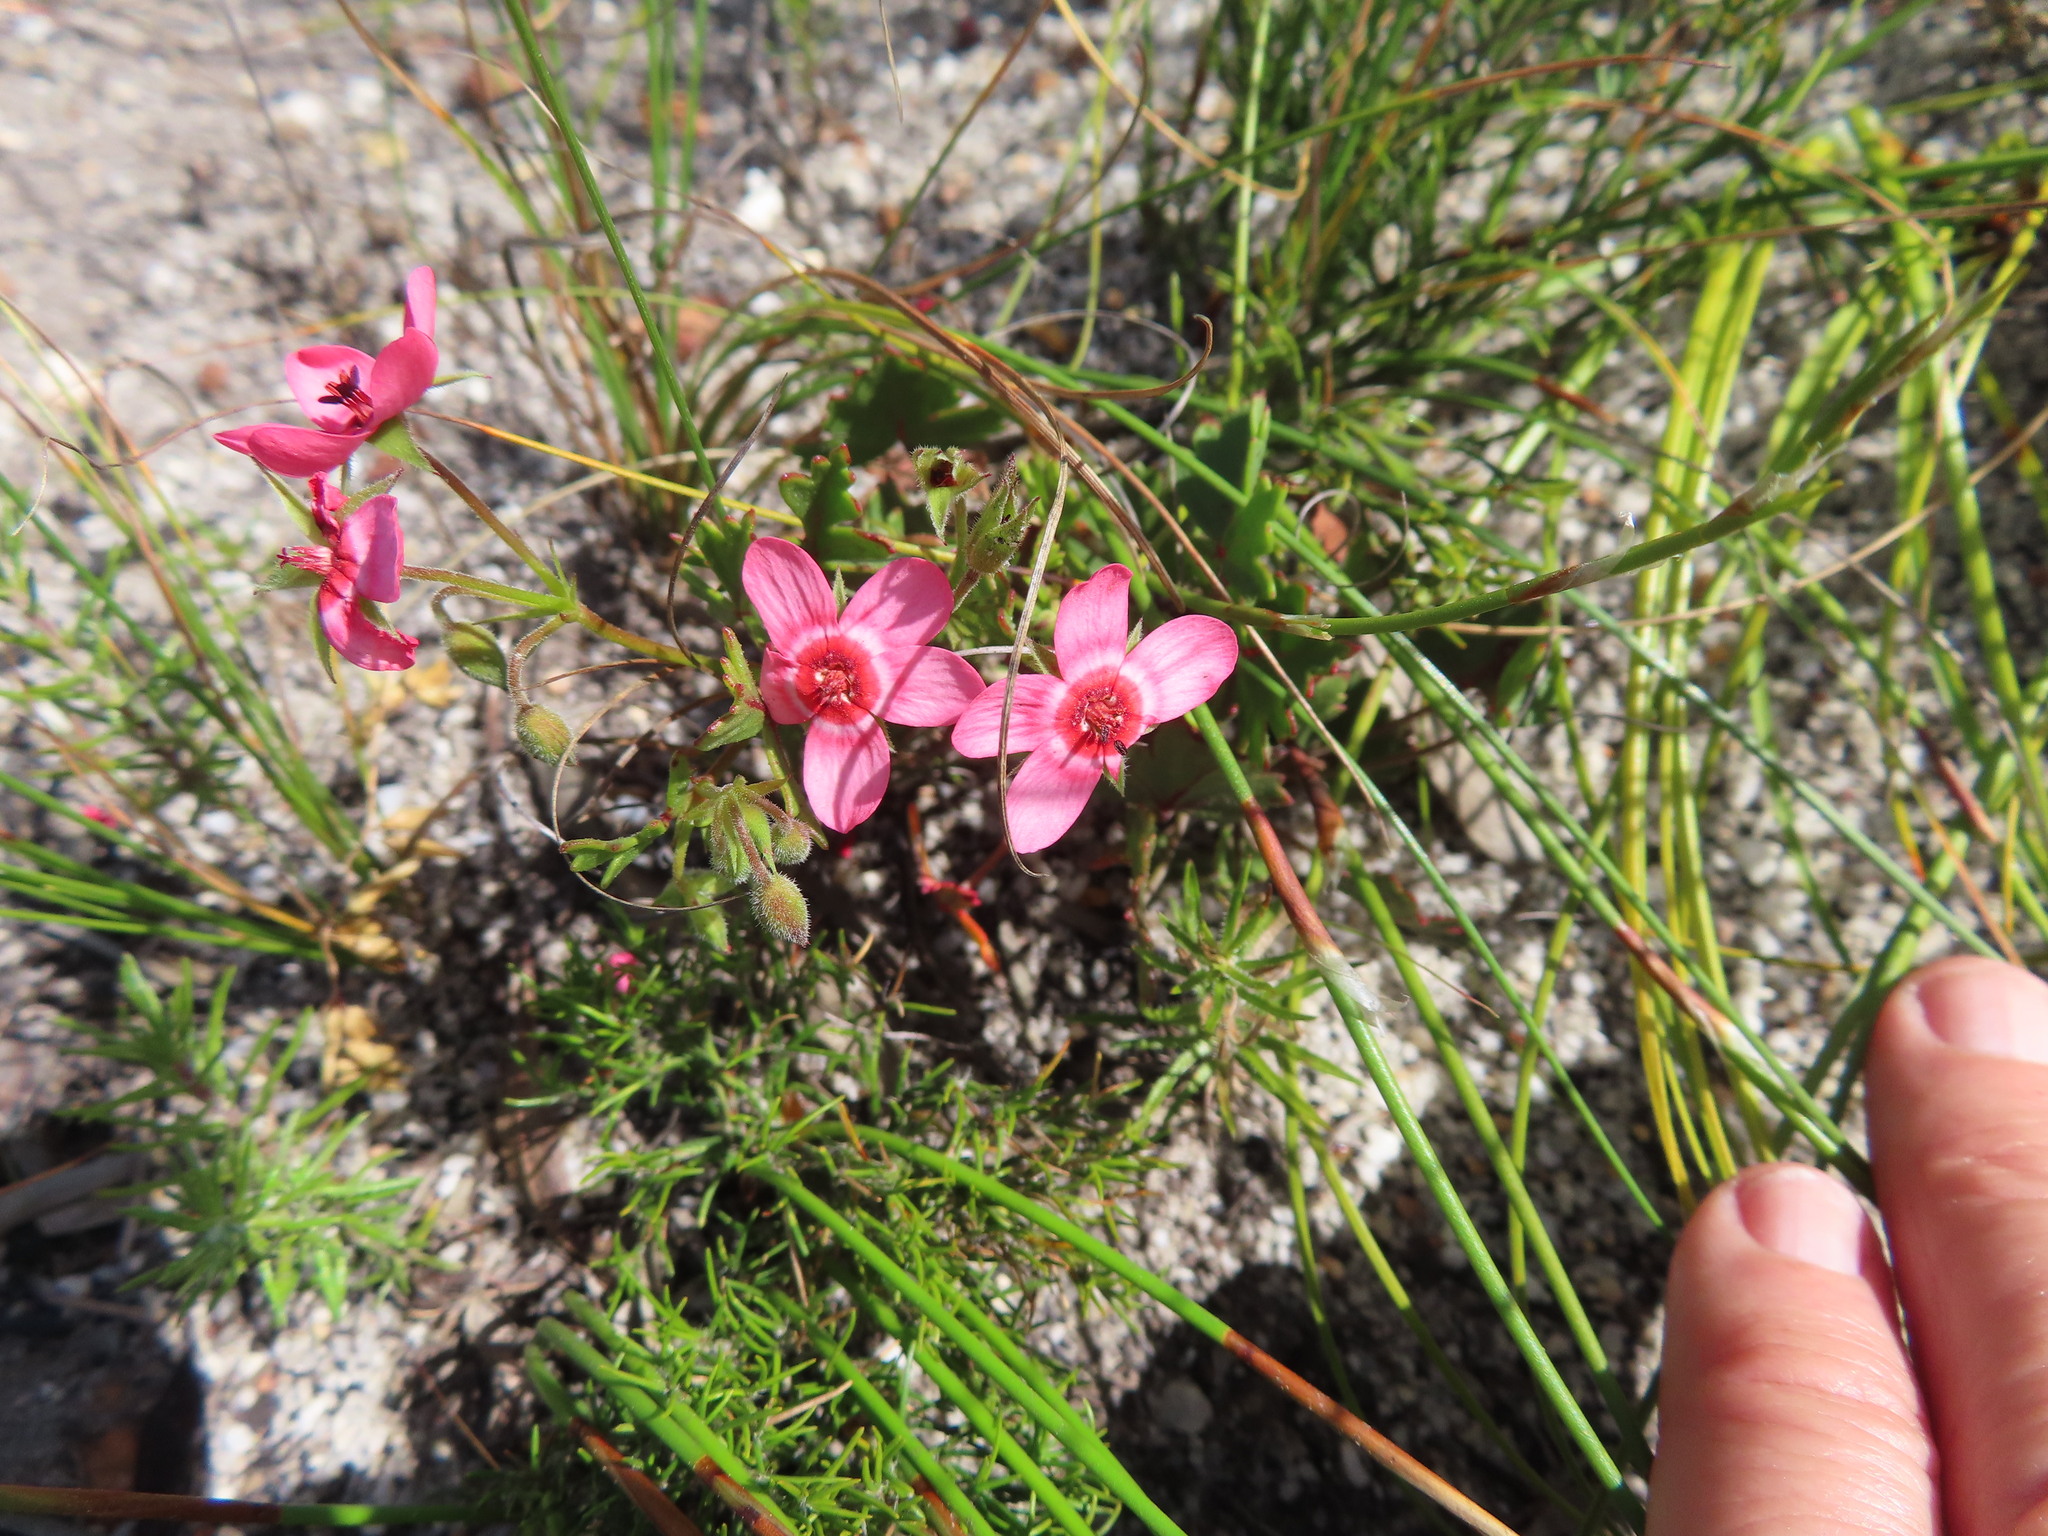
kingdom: Plantae
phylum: Tracheophyta
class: Magnoliopsida
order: Geraniales
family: Geraniaceae
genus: Pelargonium
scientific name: Pelargonium incarnatum
